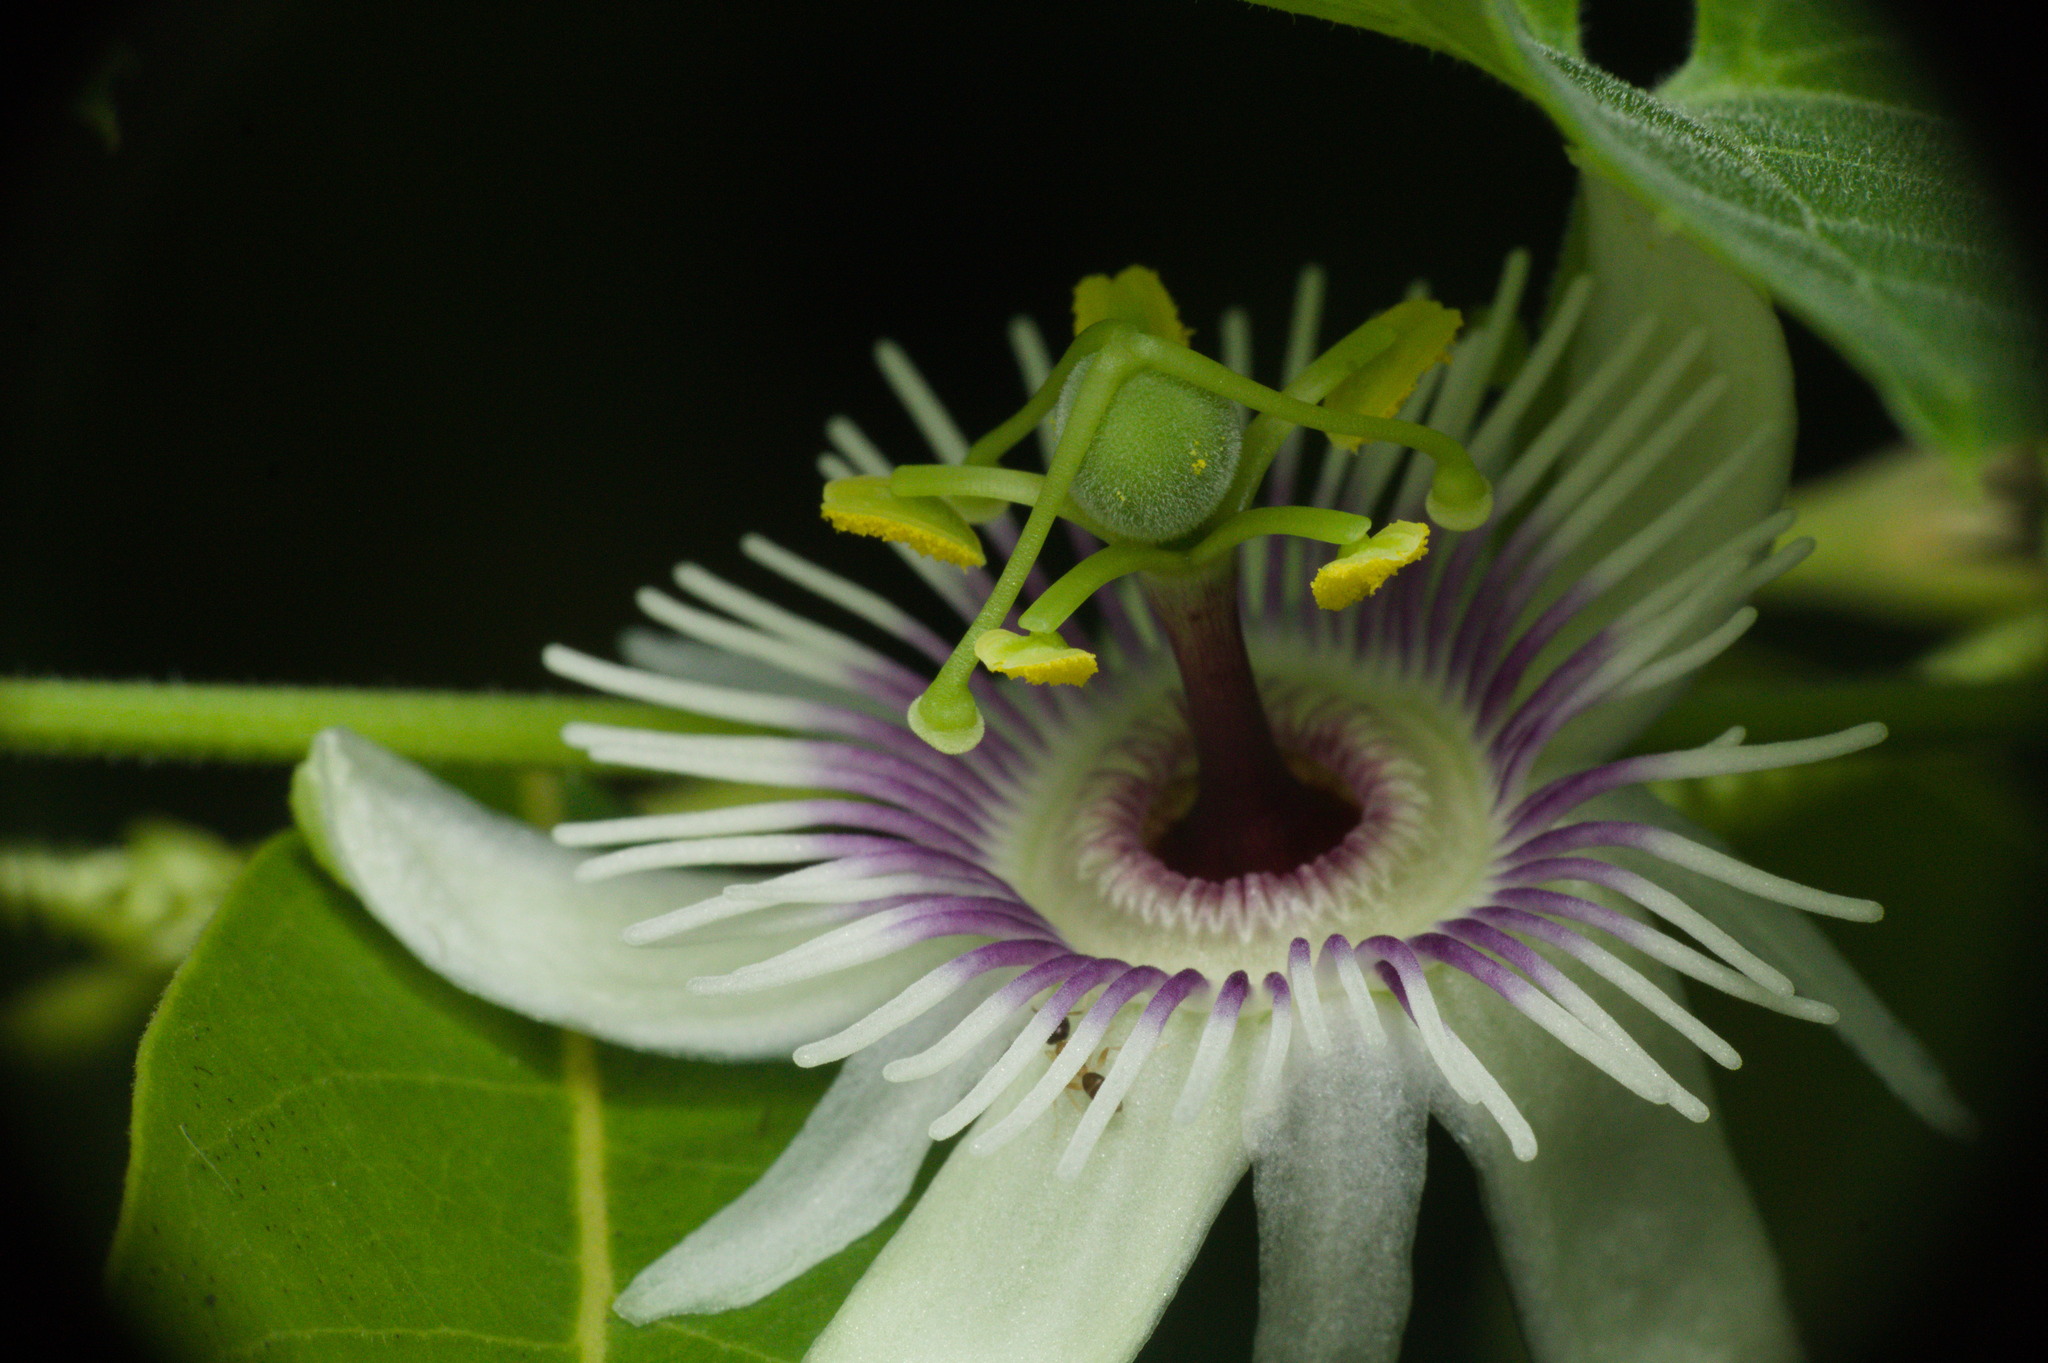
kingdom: Plantae
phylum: Tracheophyta
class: Magnoliopsida
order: Malpighiales
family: Passifloraceae
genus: Passiflora
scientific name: Passiflora morifolia
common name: Woodland passionflower
